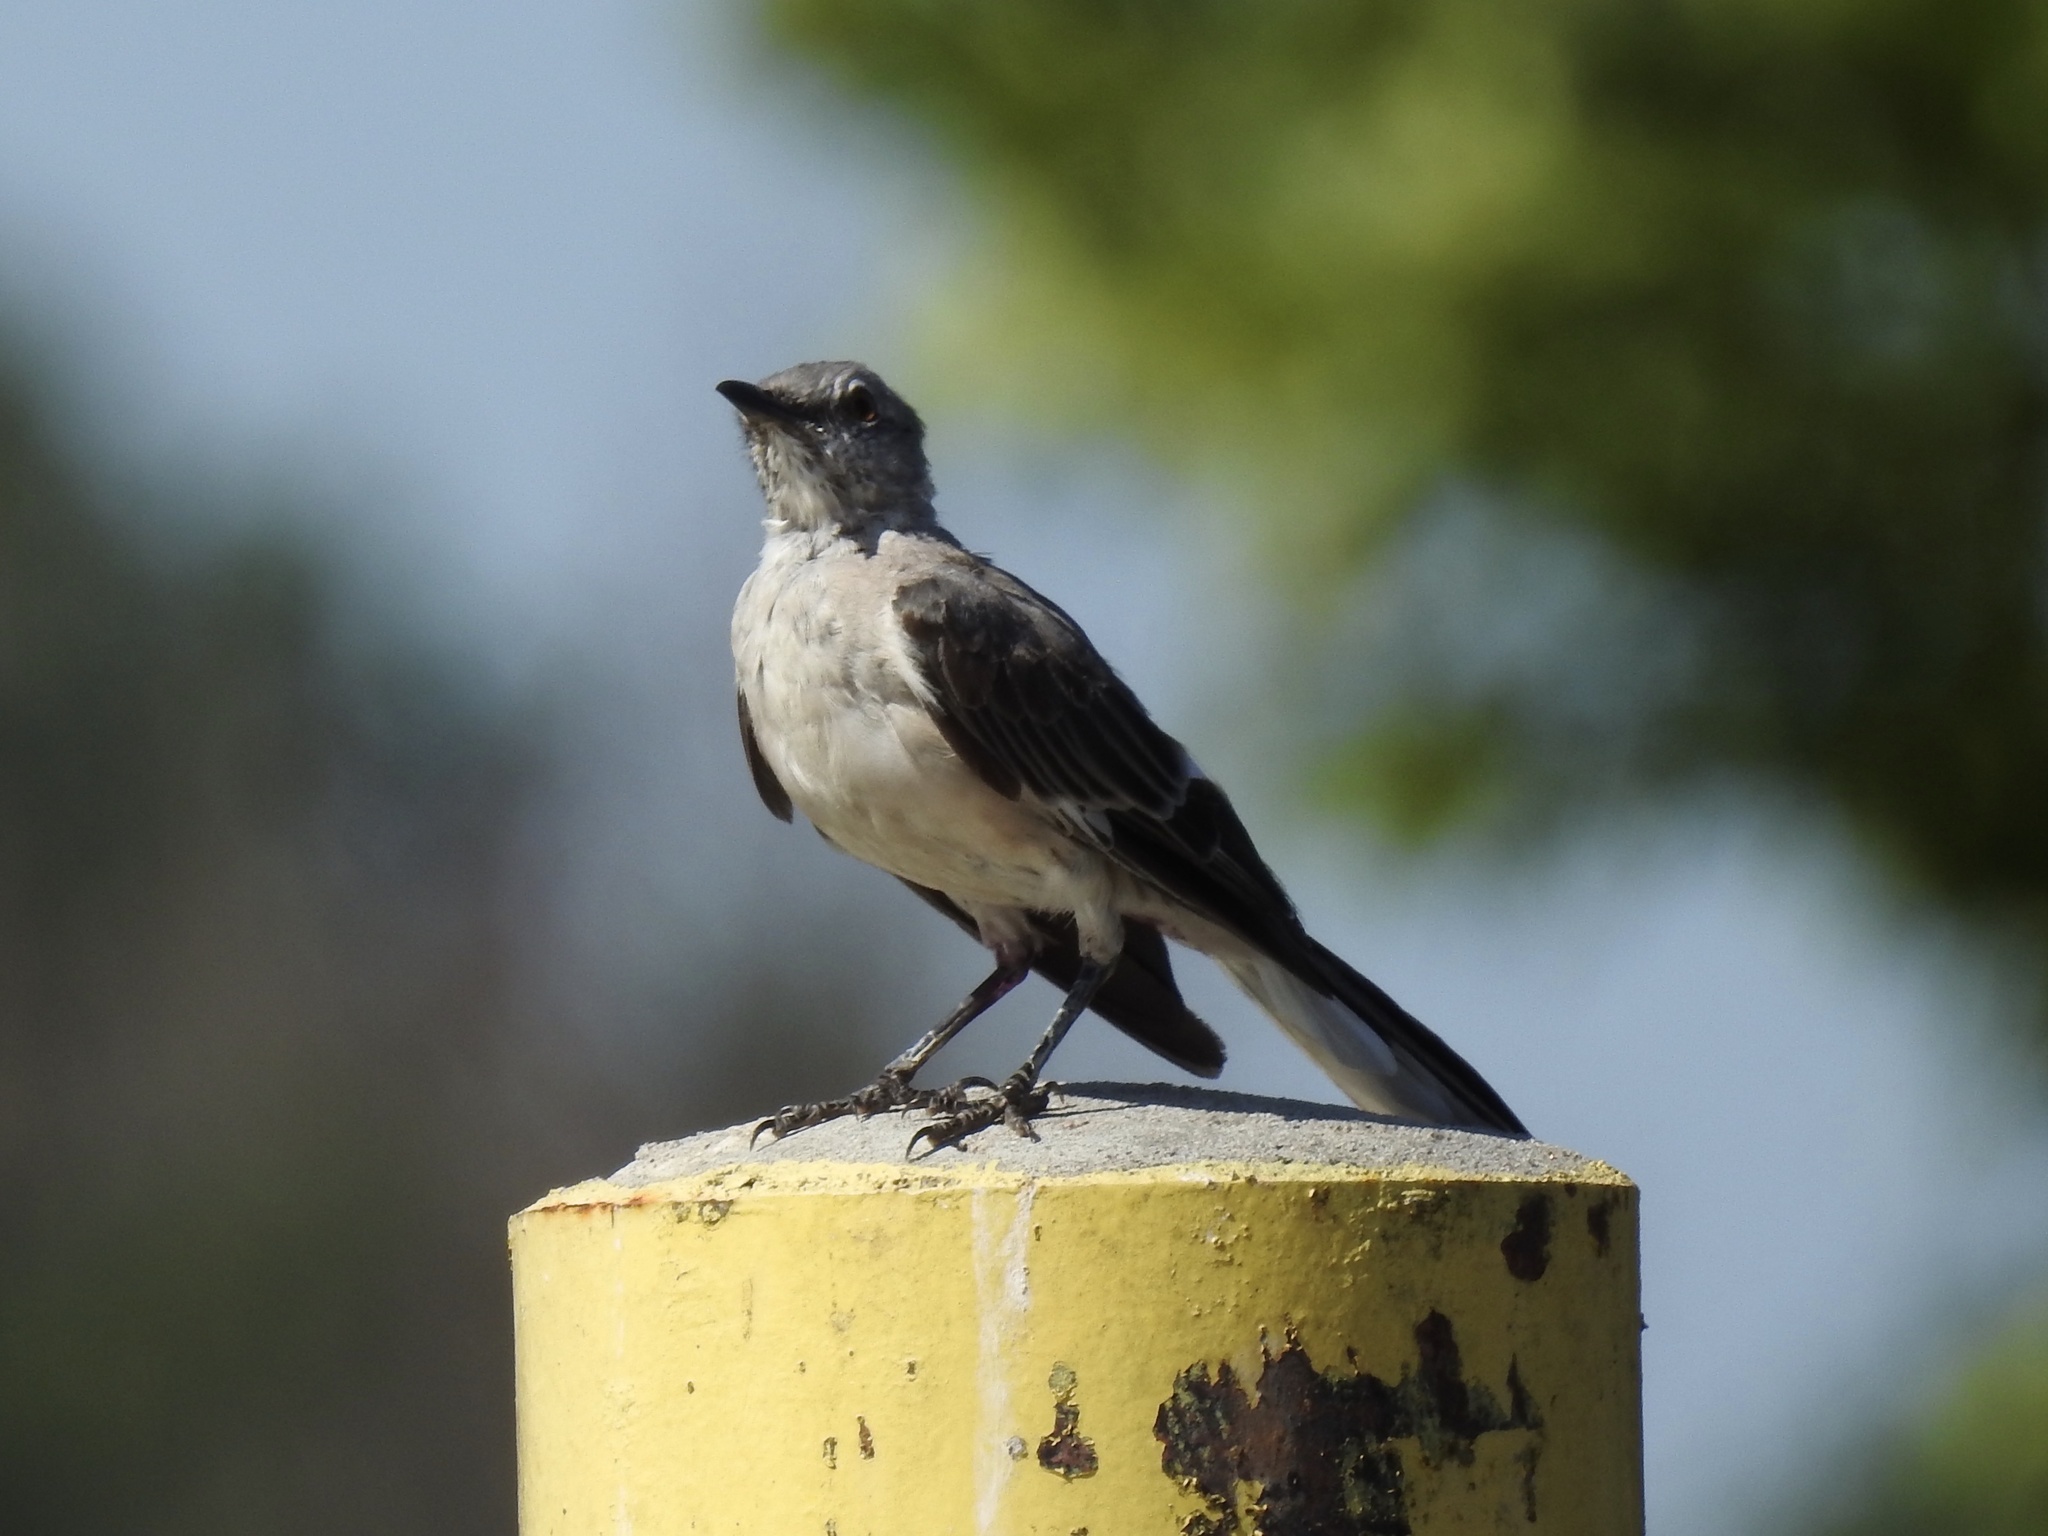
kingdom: Animalia
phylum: Chordata
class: Aves
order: Passeriformes
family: Mimidae
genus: Mimus
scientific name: Mimus polyglottos
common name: Northern mockingbird
